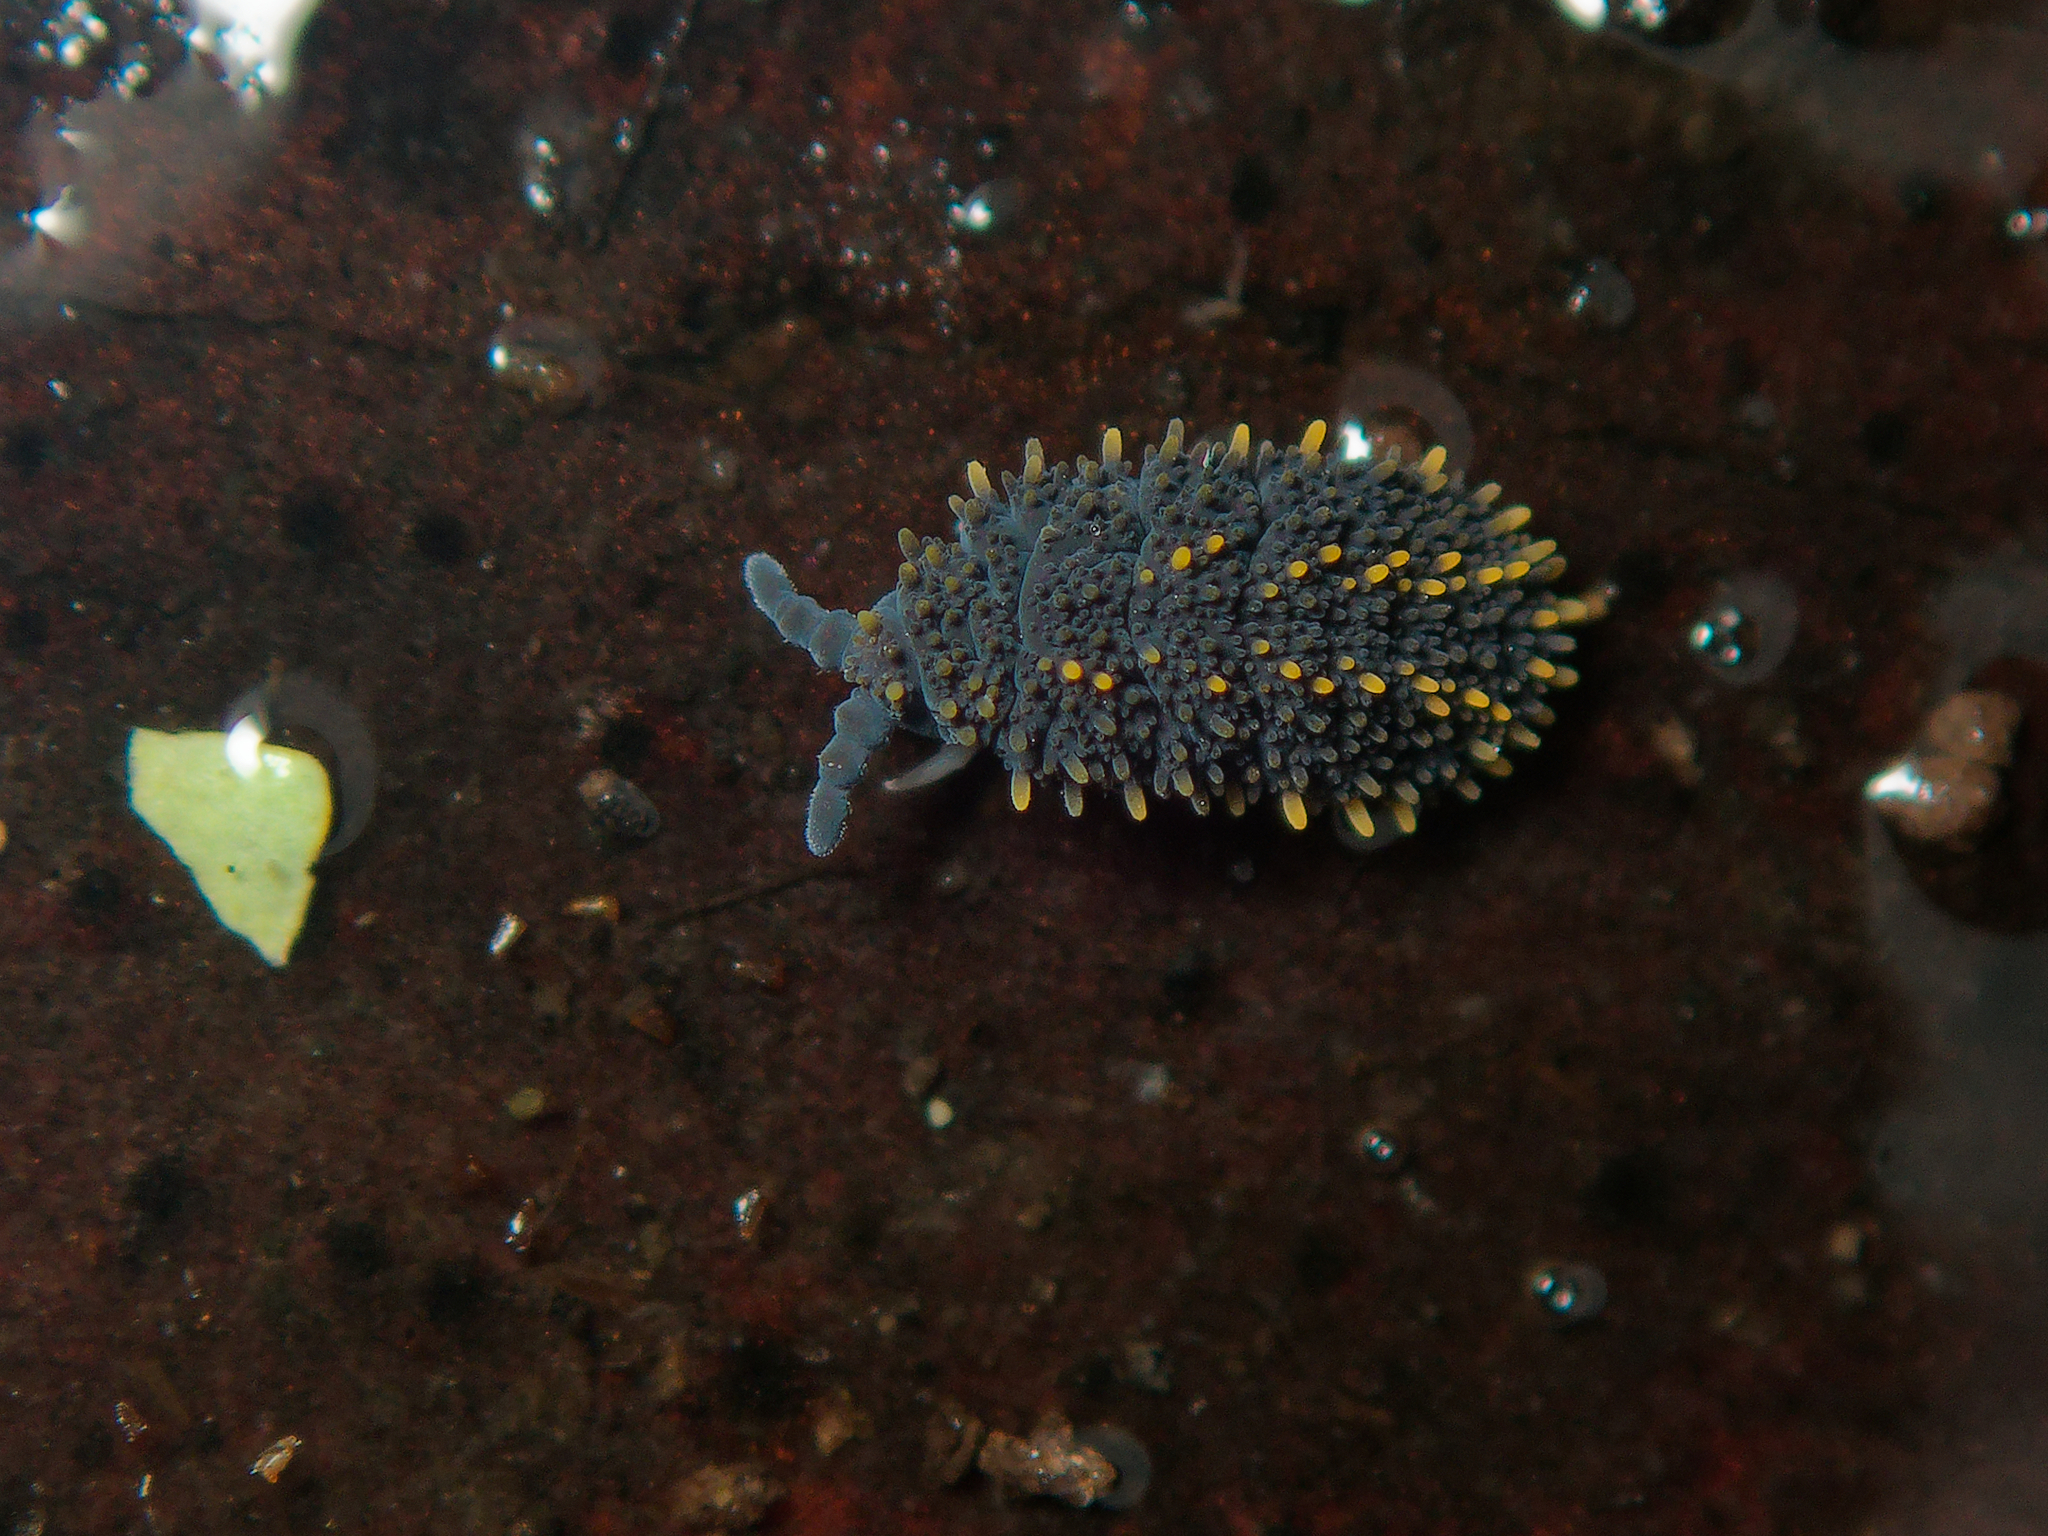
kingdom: Animalia
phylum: Arthropoda
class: Collembola
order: Poduromorpha
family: Neanuridae
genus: Holacanthella
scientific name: Holacanthella duospinosa
